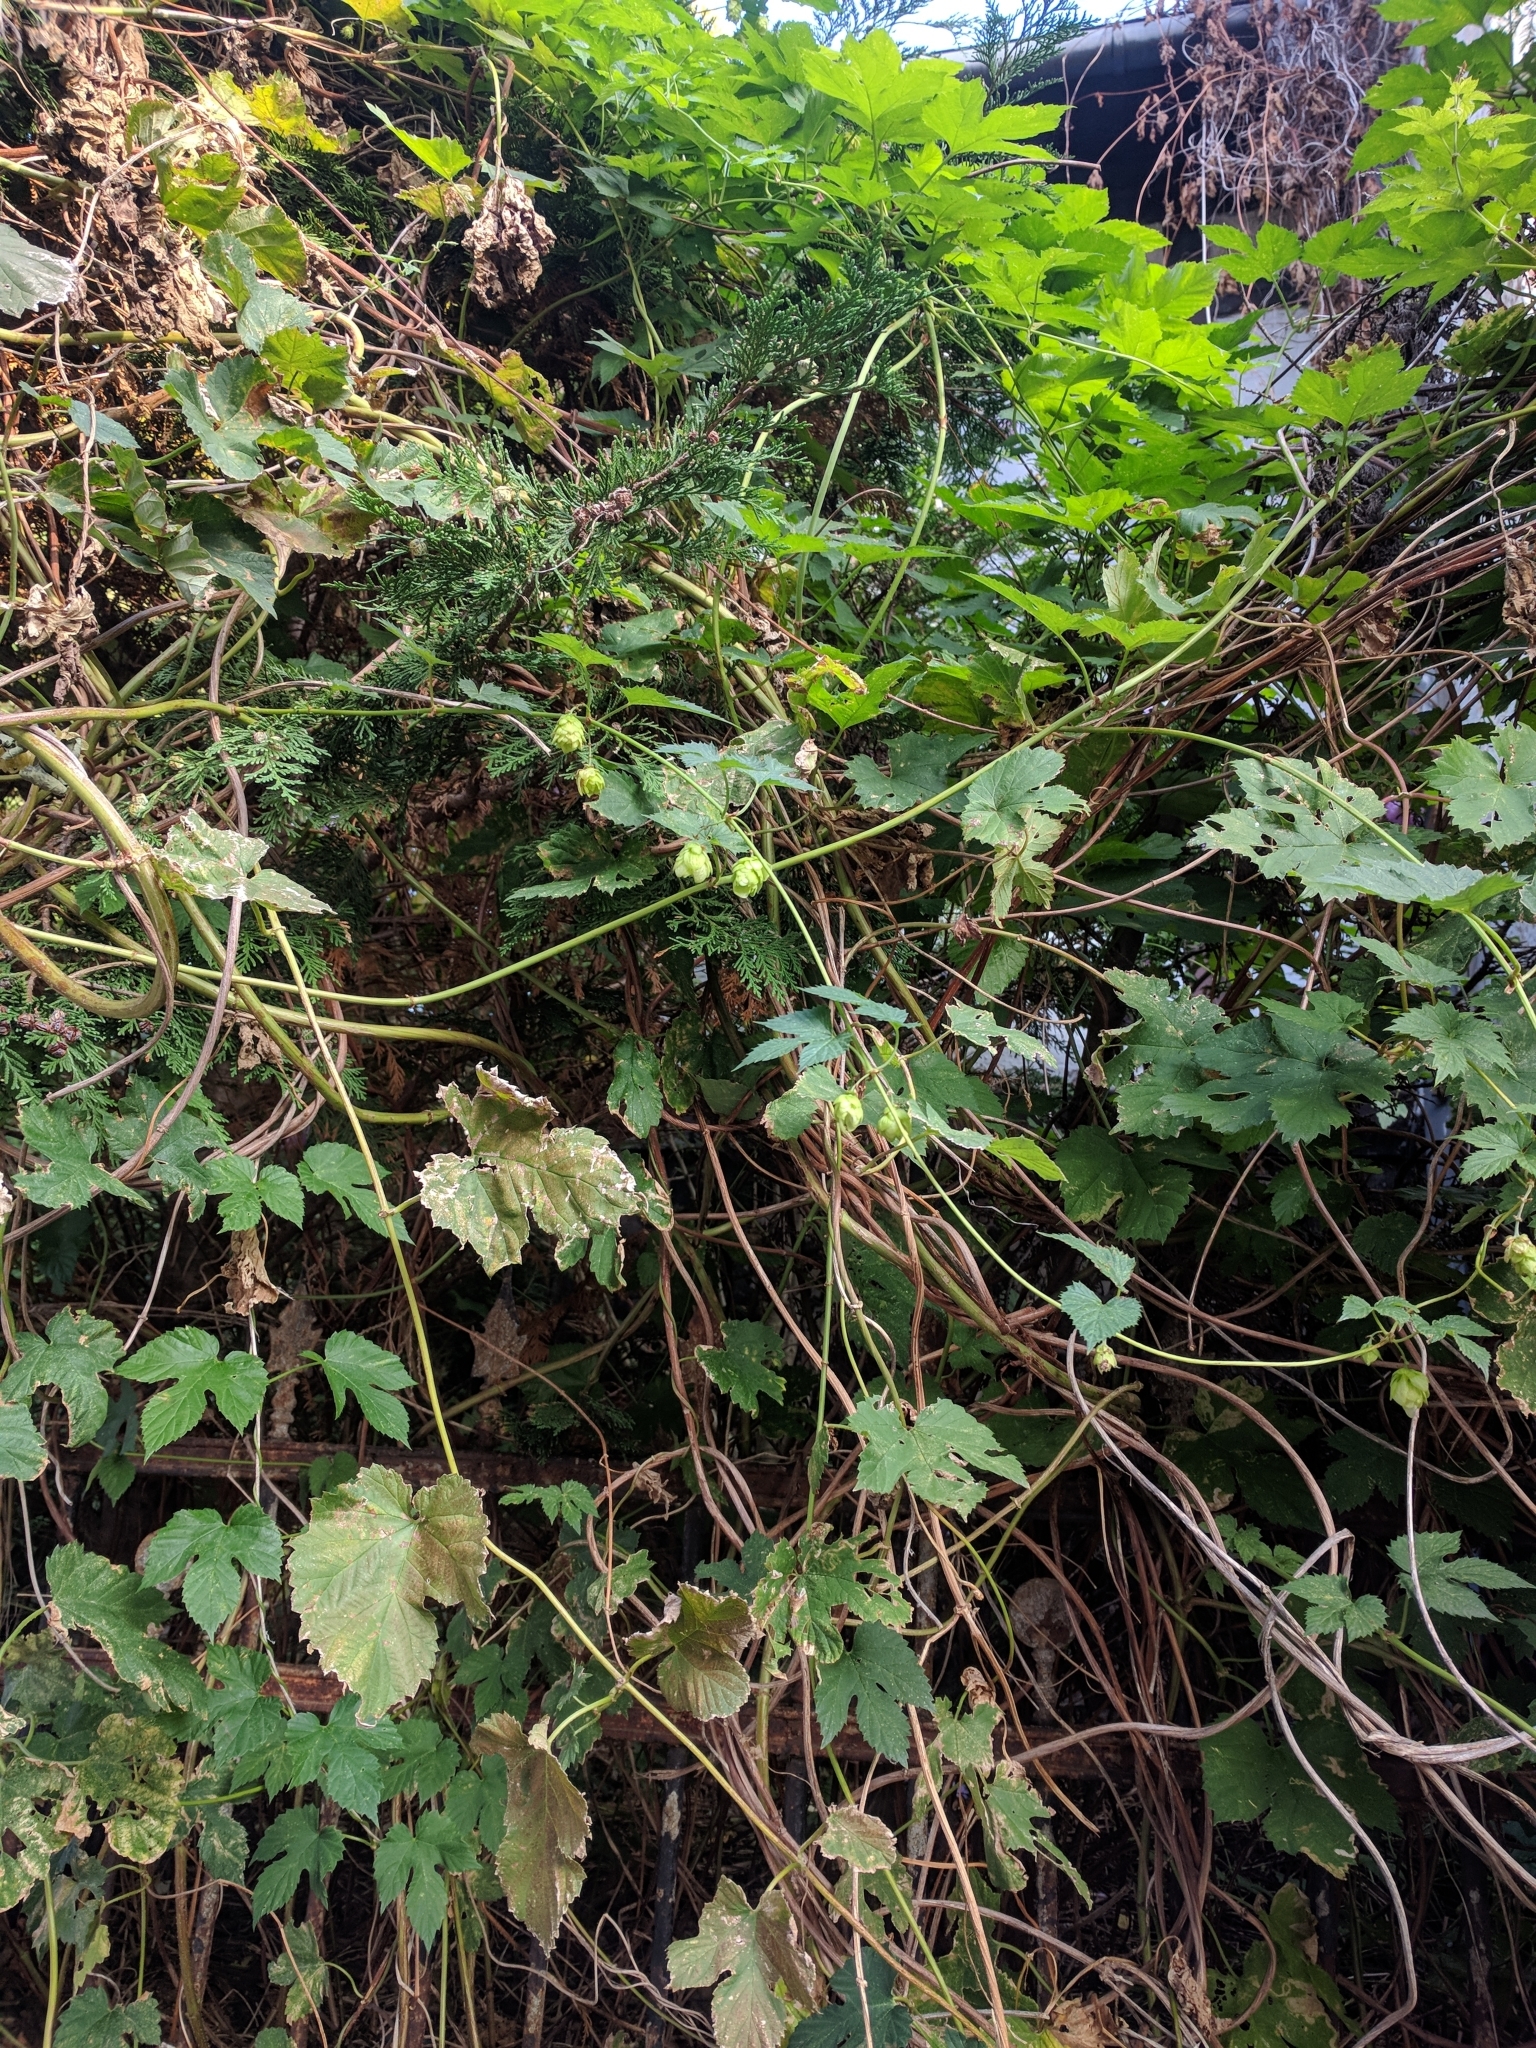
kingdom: Plantae
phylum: Tracheophyta
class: Magnoliopsida
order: Rosales
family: Cannabaceae
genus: Humulus
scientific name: Humulus lupulus
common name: Hop
